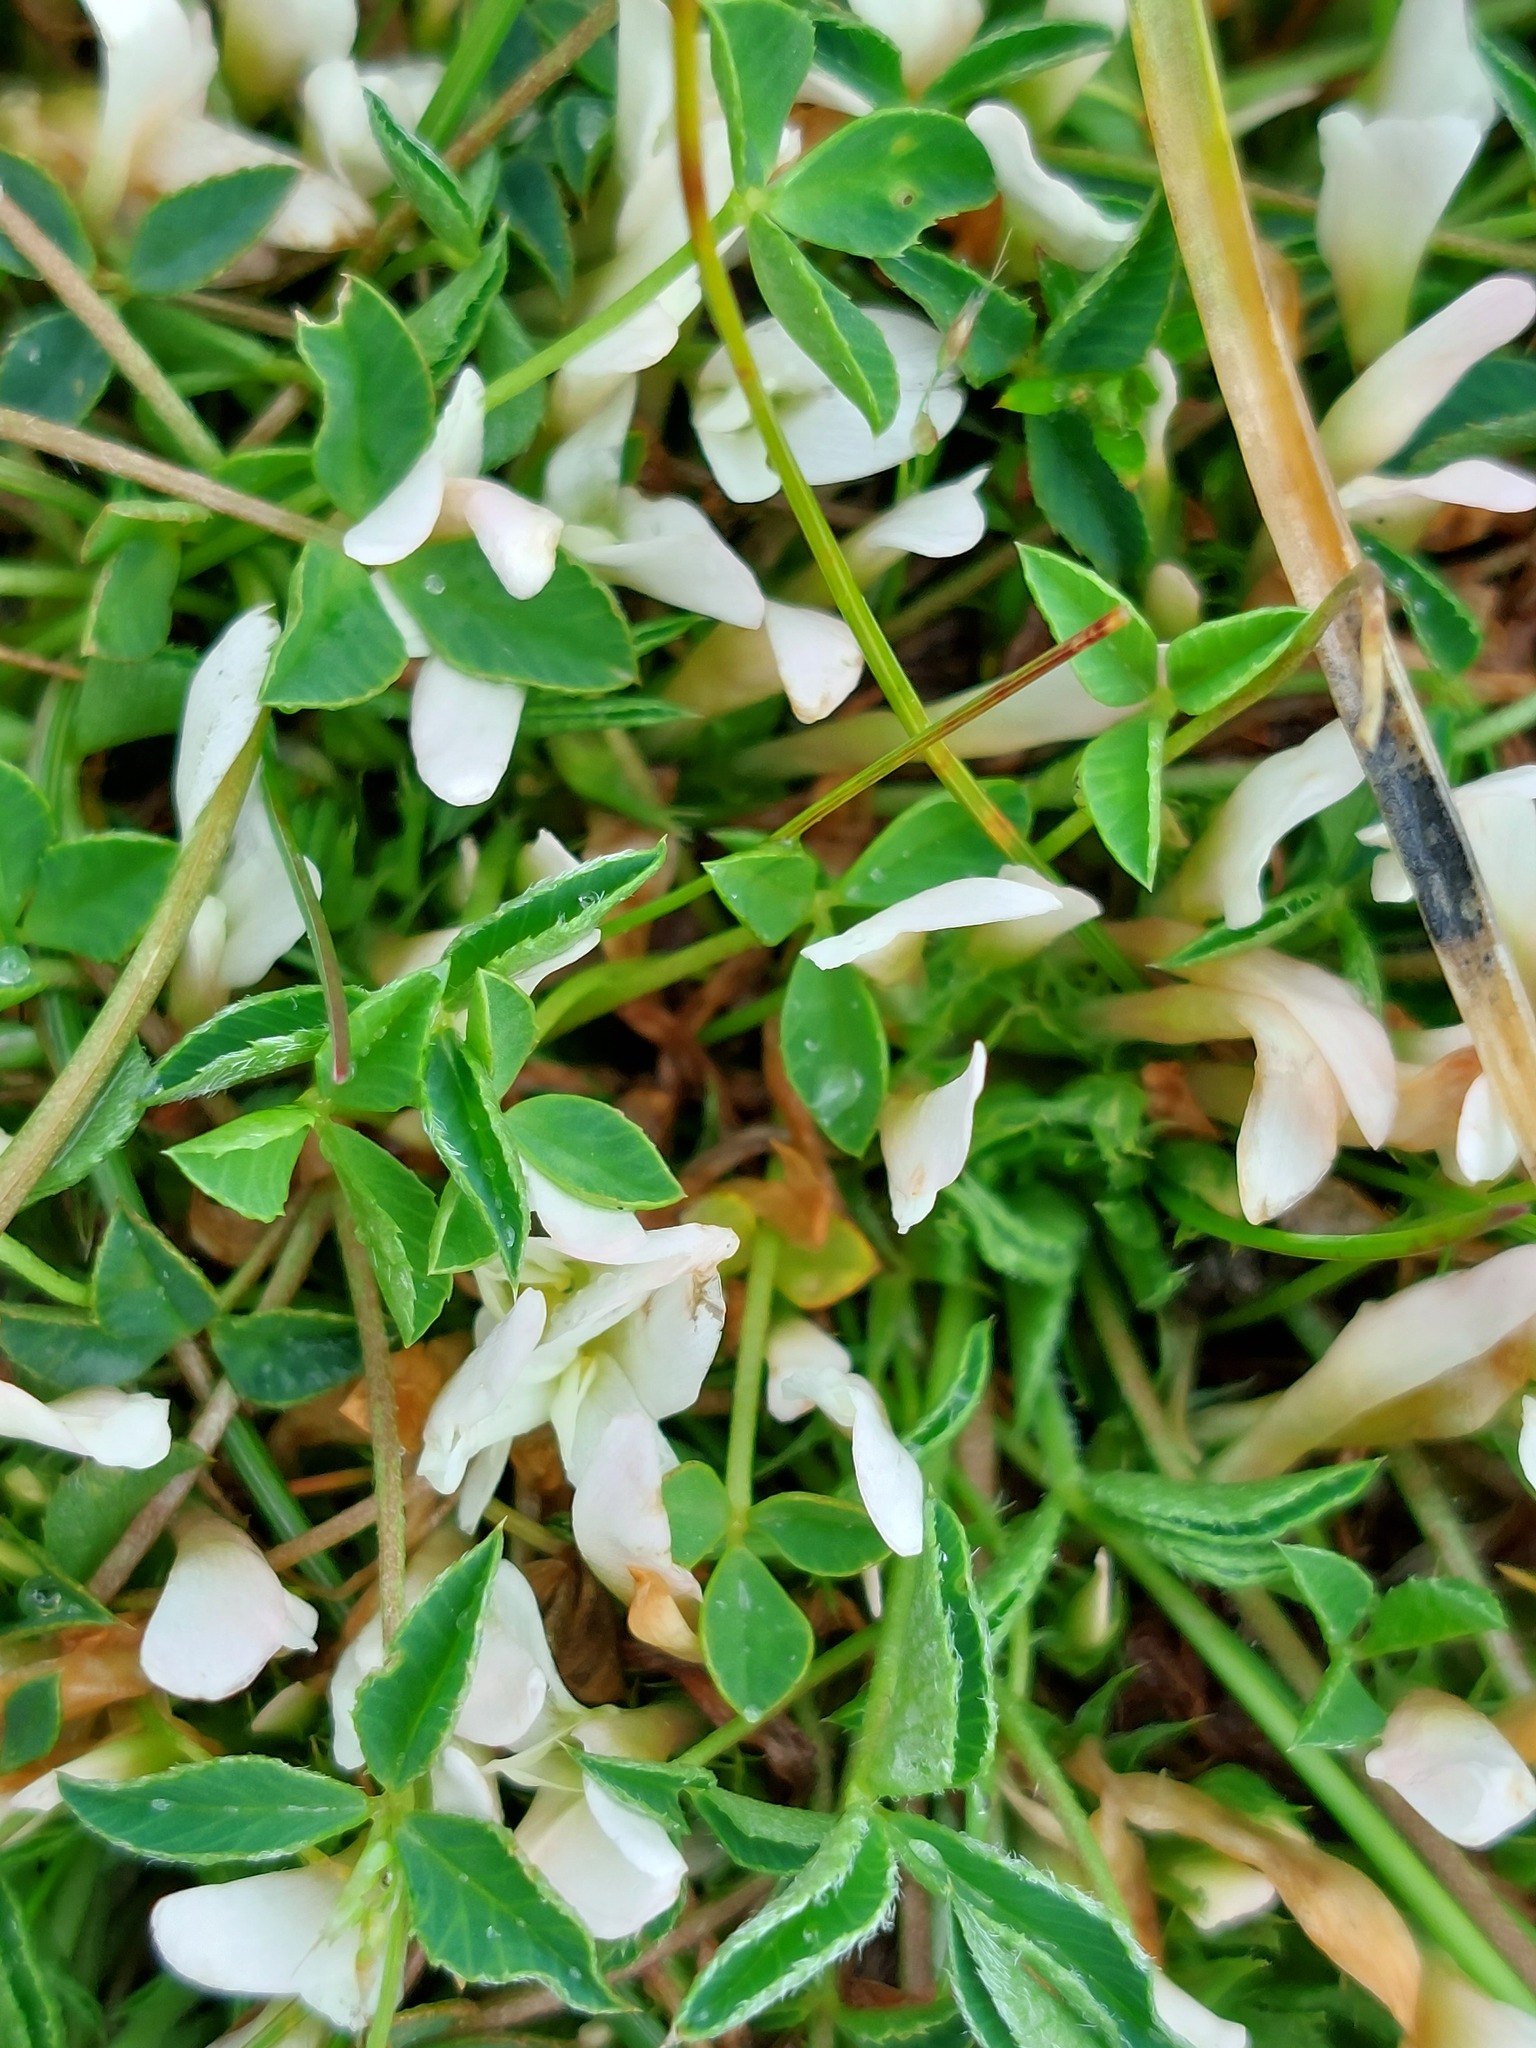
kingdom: Plantae
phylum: Tracheophyta
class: Magnoliopsida
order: Fabales
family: Fabaceae
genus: Trifolium
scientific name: Trifolium uniflorum
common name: One-flower clover
